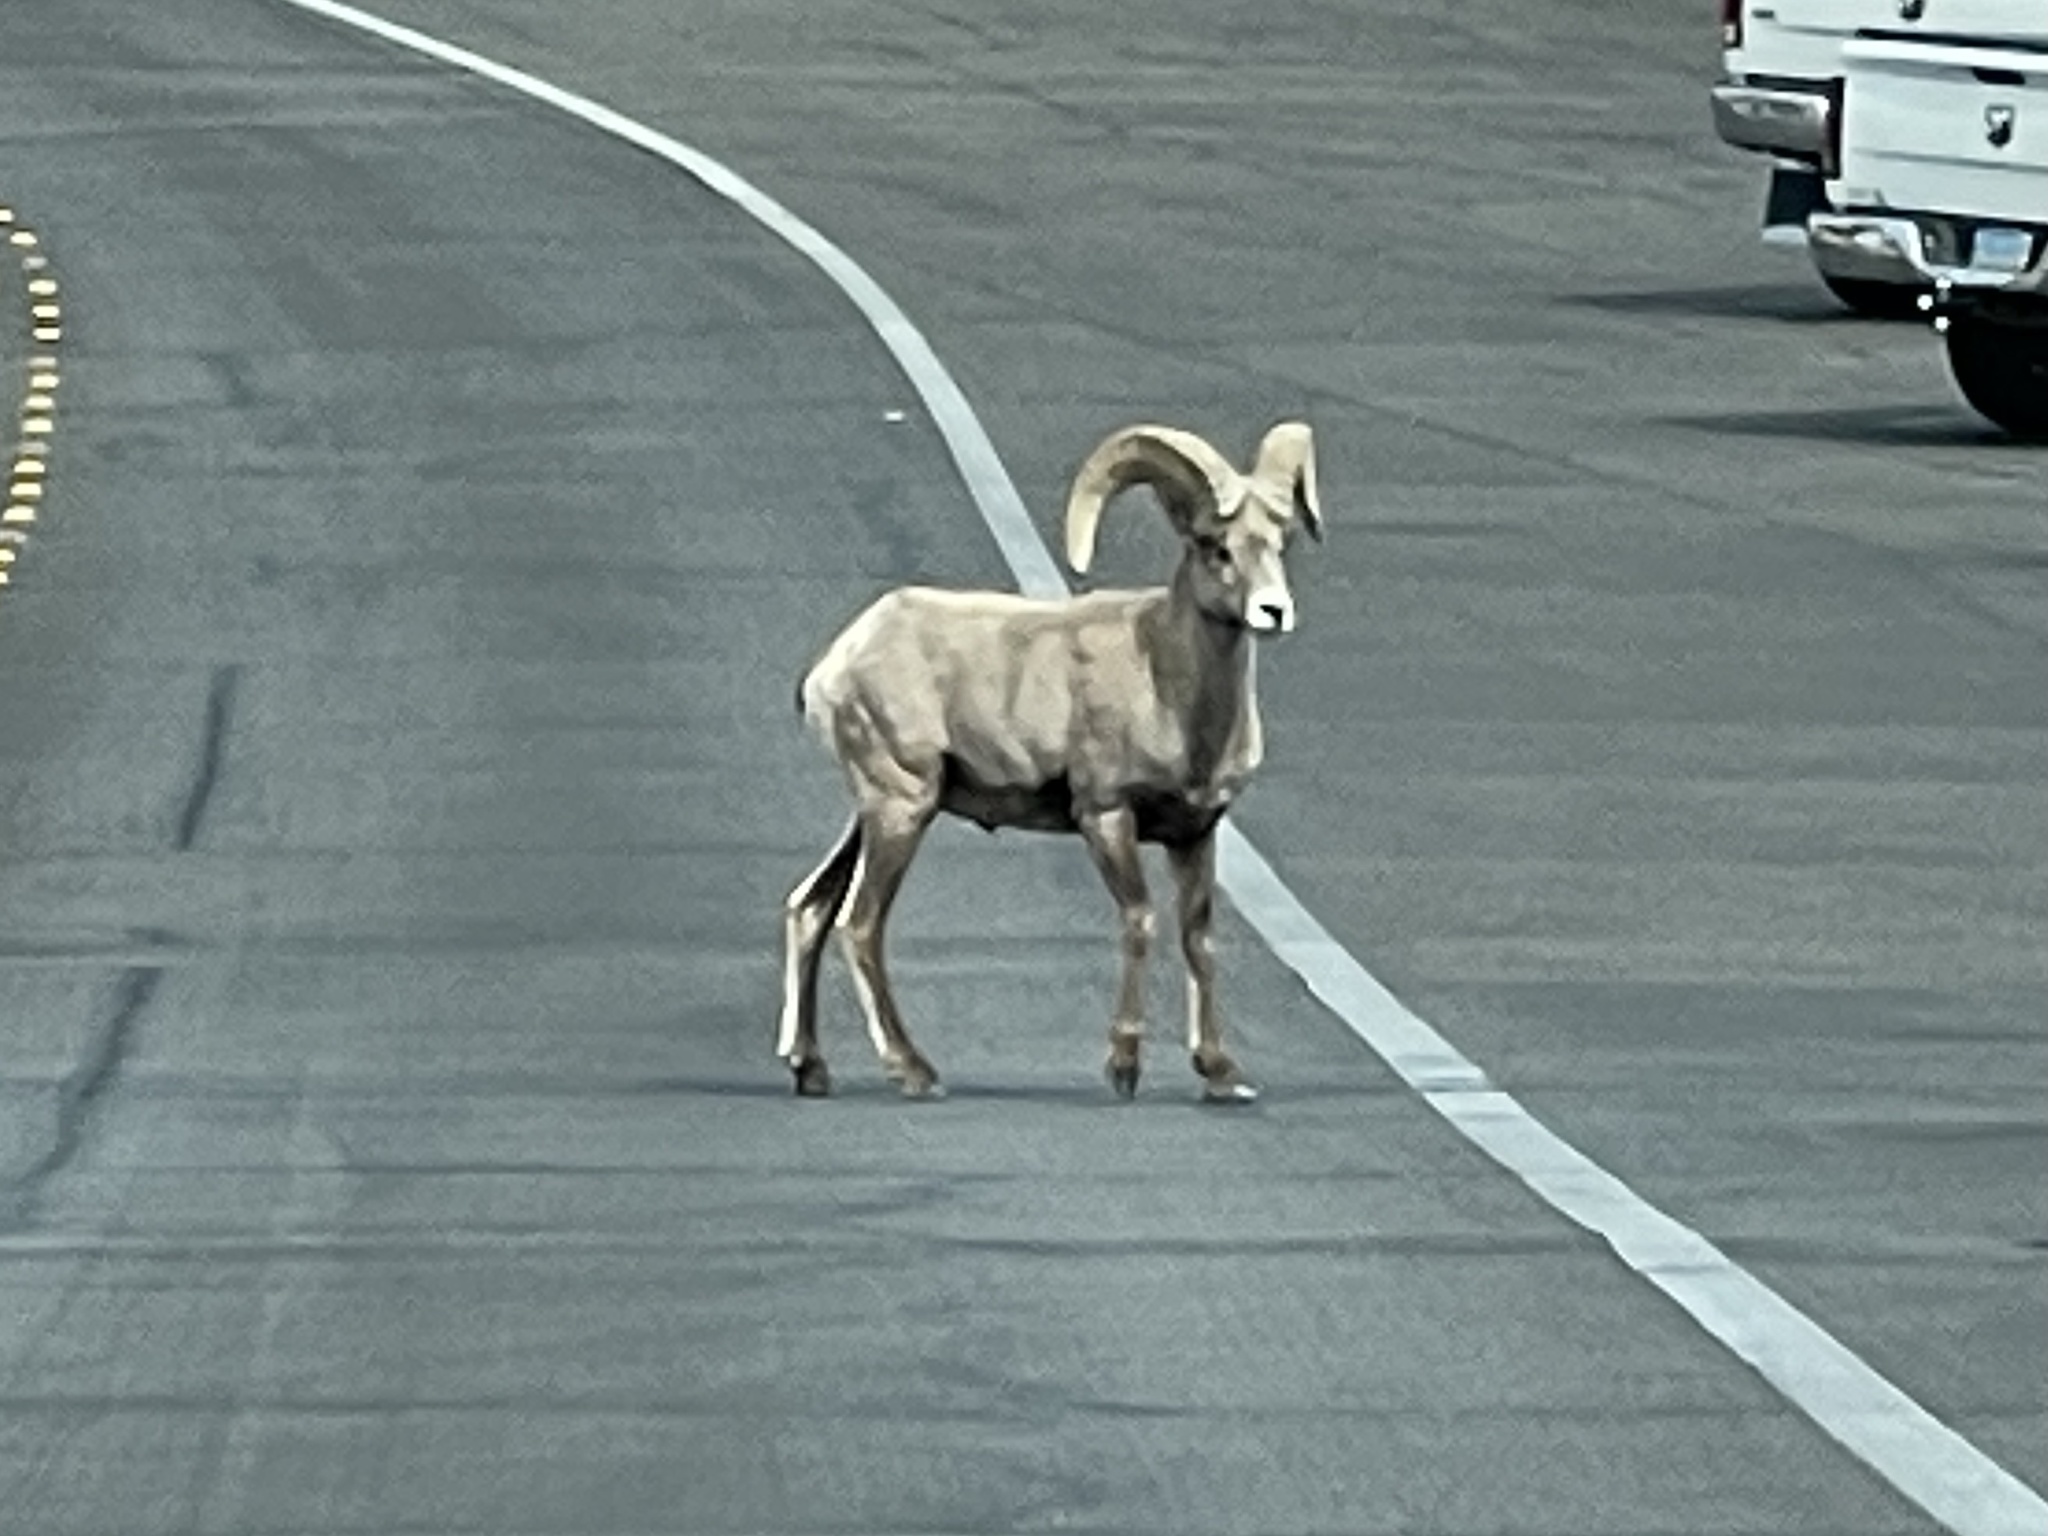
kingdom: Animalia
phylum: Chordata
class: Mammalia
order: Artiodactyla
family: Bovidae
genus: Ovis
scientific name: Ovis canadensis
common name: Bighorn sheep
